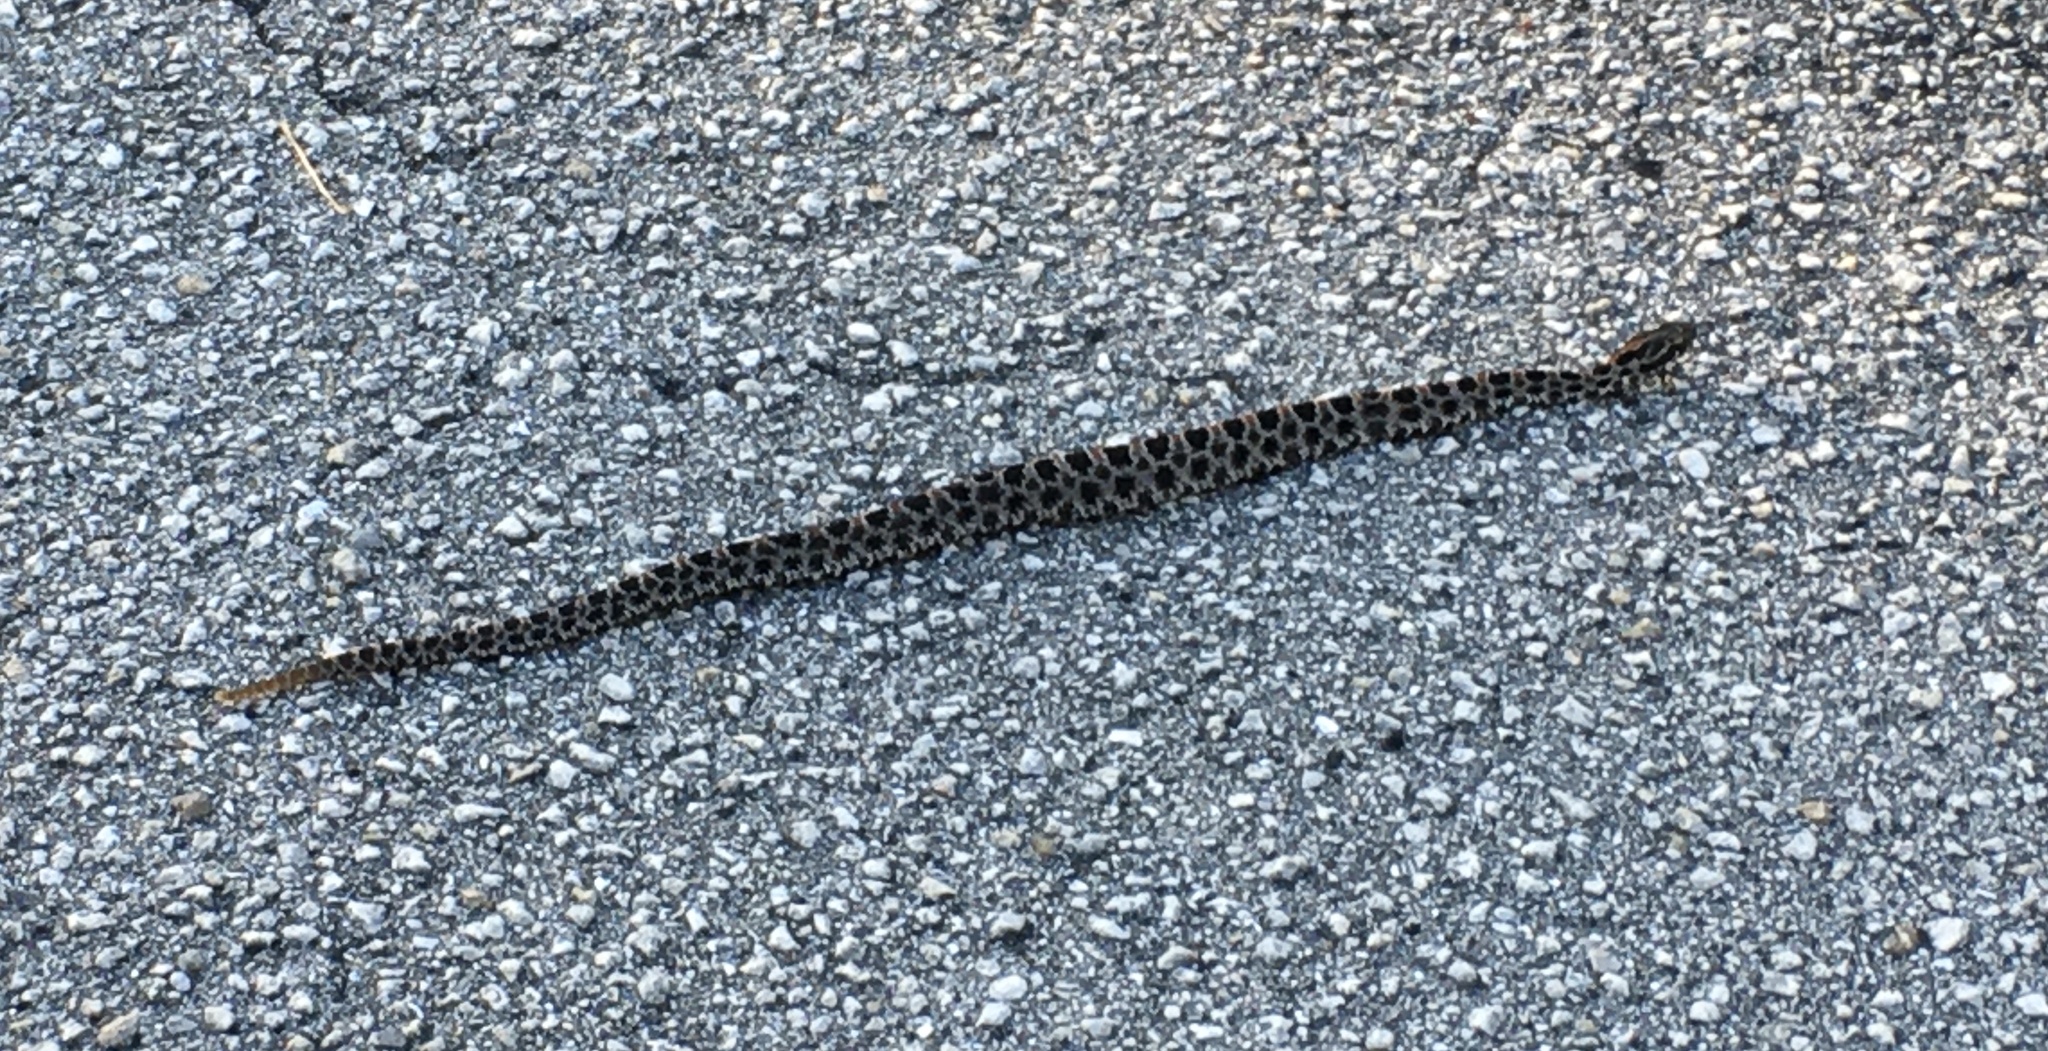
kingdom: Animalia
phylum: Chordata
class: Squamata
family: Viperidae
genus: Sistrurus
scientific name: Sistrurus miliarius
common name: Pygmy rattlesnake
